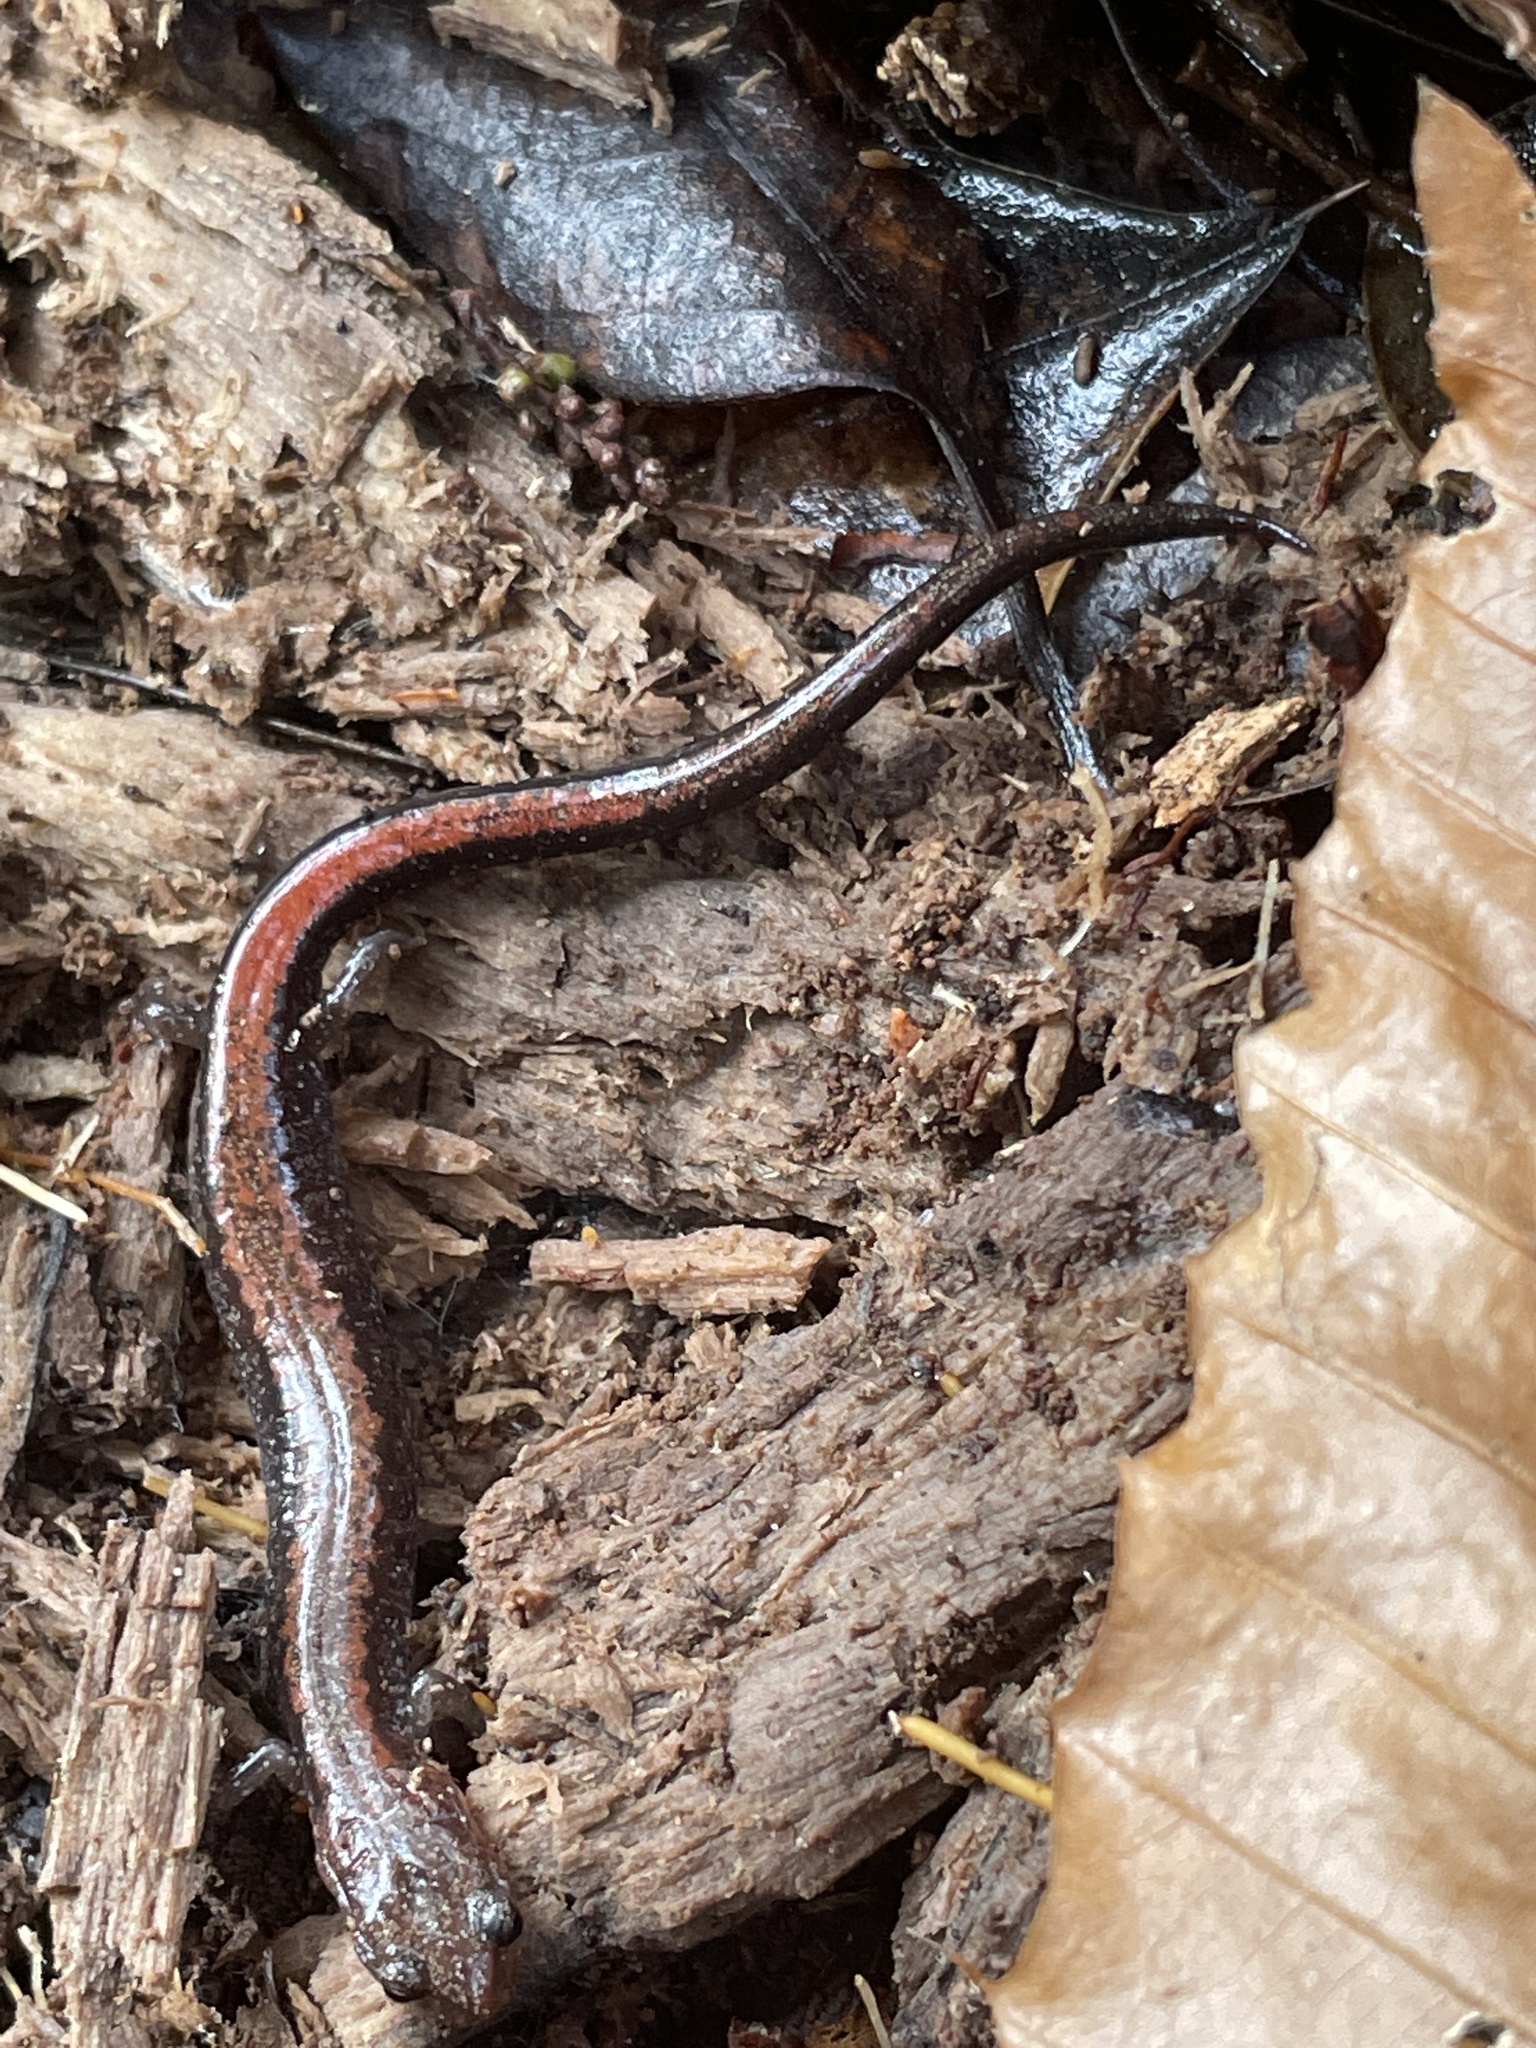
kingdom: Animalia
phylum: Chordata
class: Amphibia
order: Caudata
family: Plethodontidae
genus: Plethodon
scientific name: Plethodon cinereus
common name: Redback salamander
